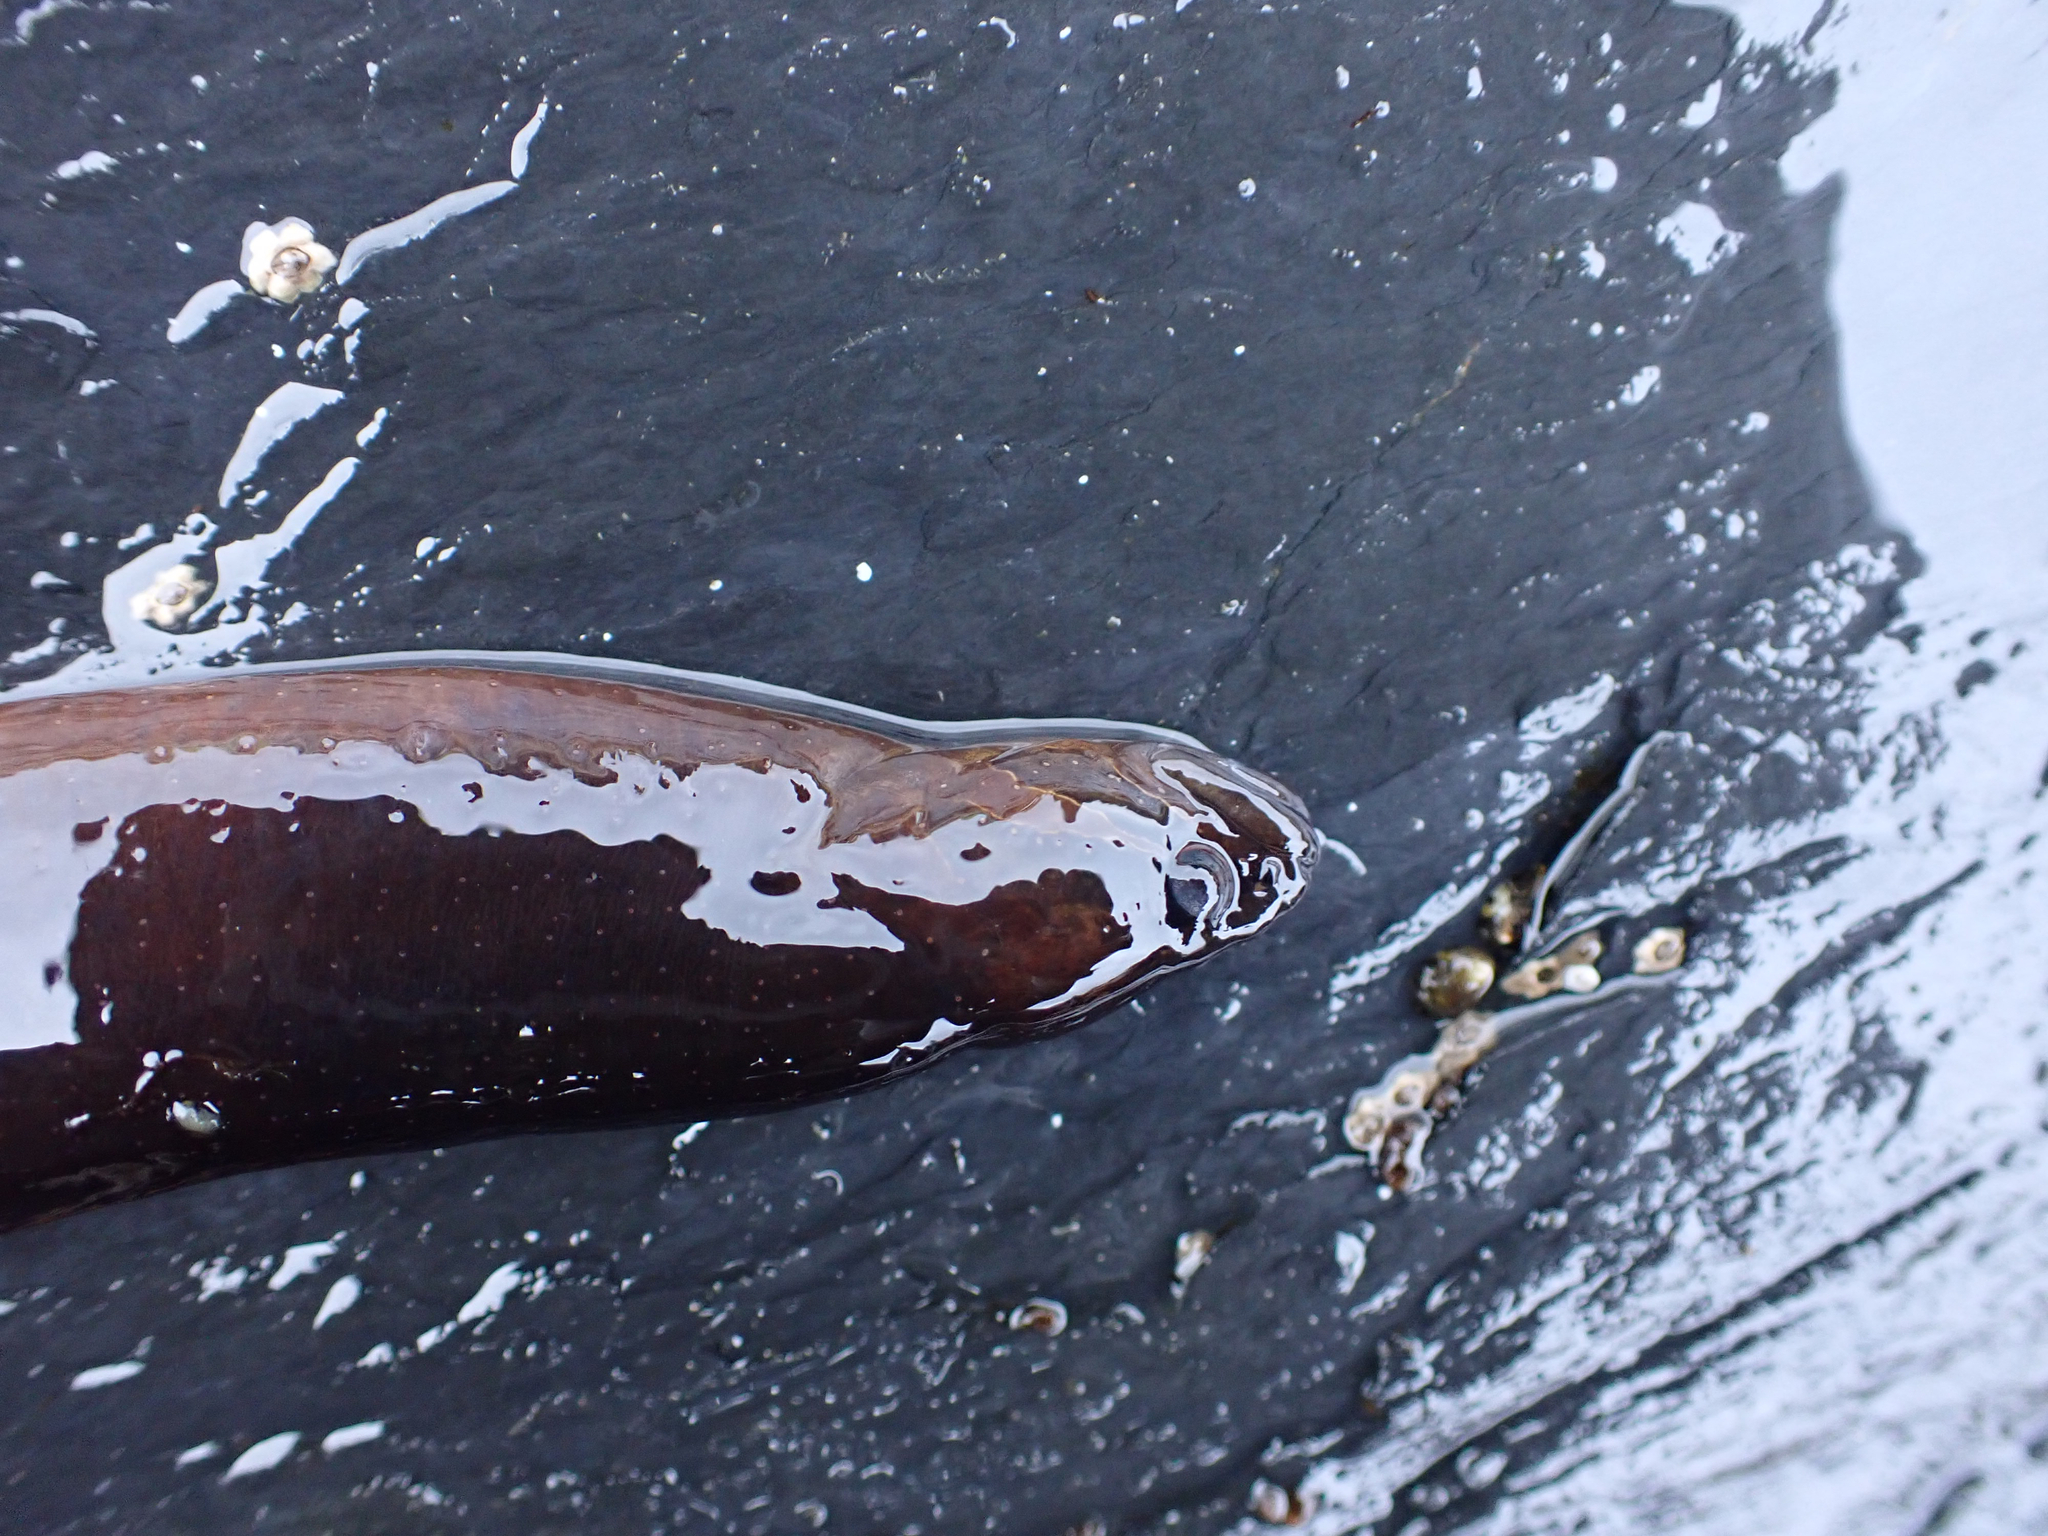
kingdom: Animalia
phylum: Chordata
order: Perciformes
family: Stichaeidae
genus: Xiphister
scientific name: Xiphister atropurpureus
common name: Black prickleback
